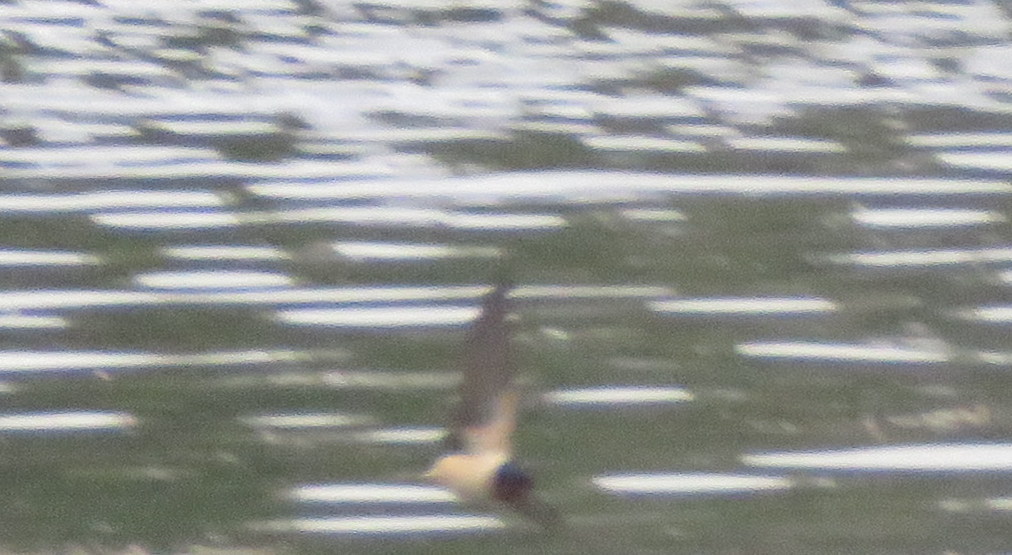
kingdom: Animalia
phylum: Chordata
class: Aves
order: Passeriformes
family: Hirundinidae
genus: Hirundo
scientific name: Hirundo rustica
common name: Barn swallow
